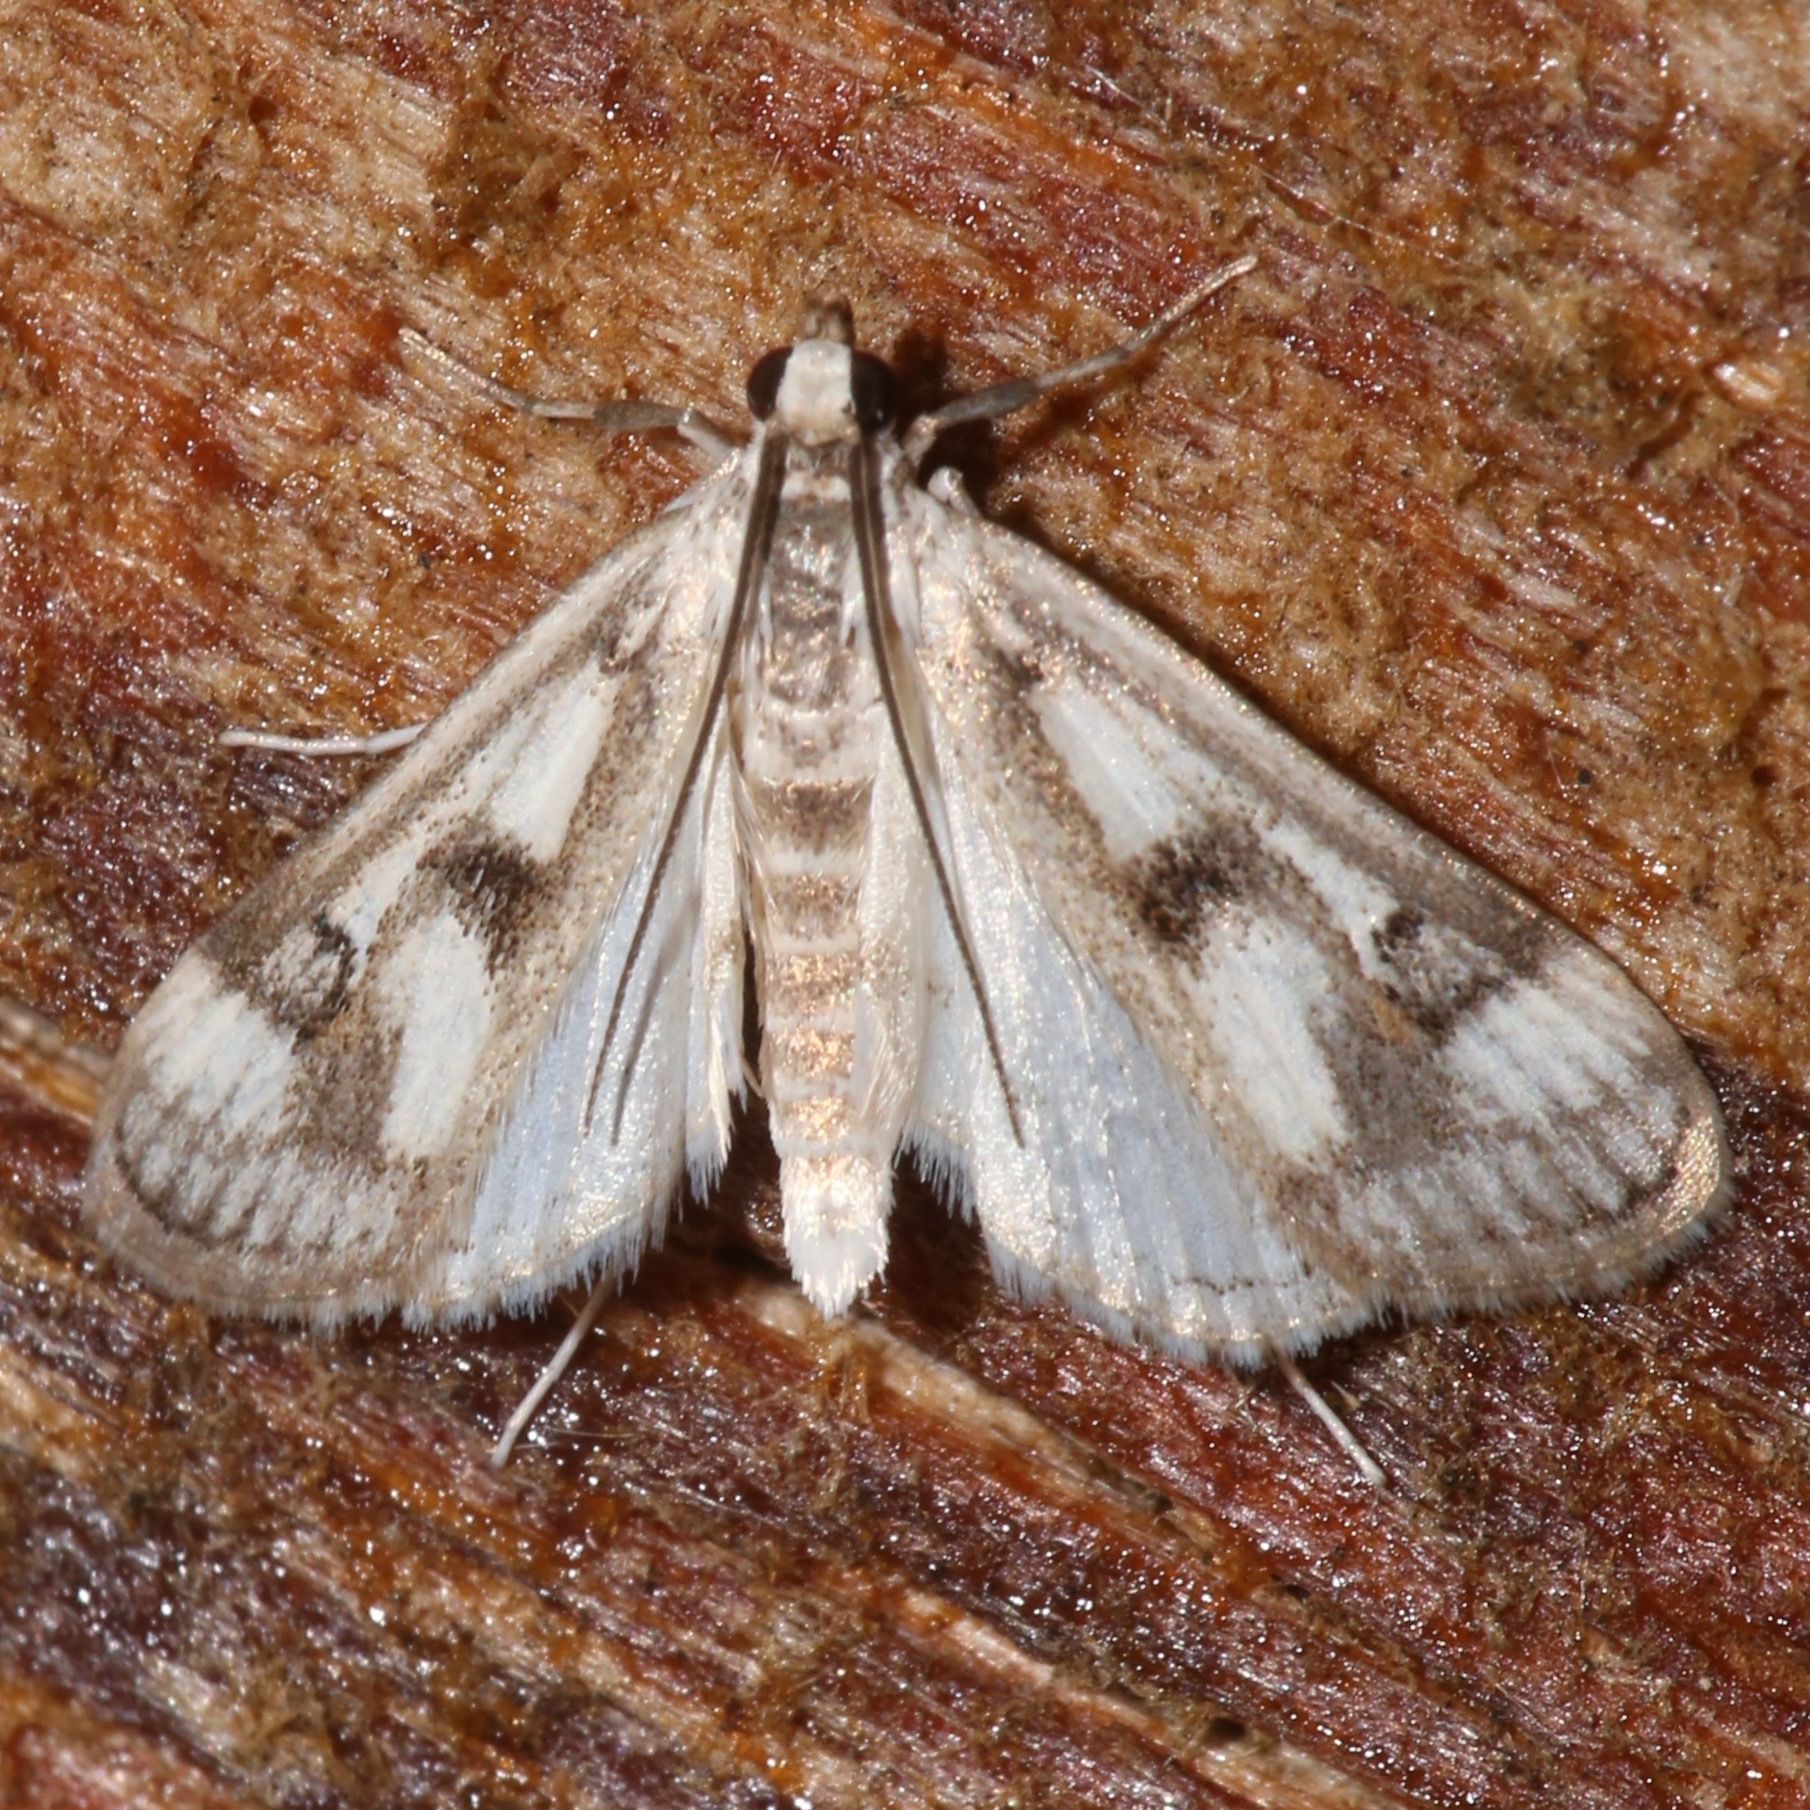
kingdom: Animalia
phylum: Arthropoda
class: Insecta
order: Lepidoptera
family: Crambidae
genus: Parapoynx
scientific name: Parapoynx maculalis
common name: Polymorphic pondweed moth
